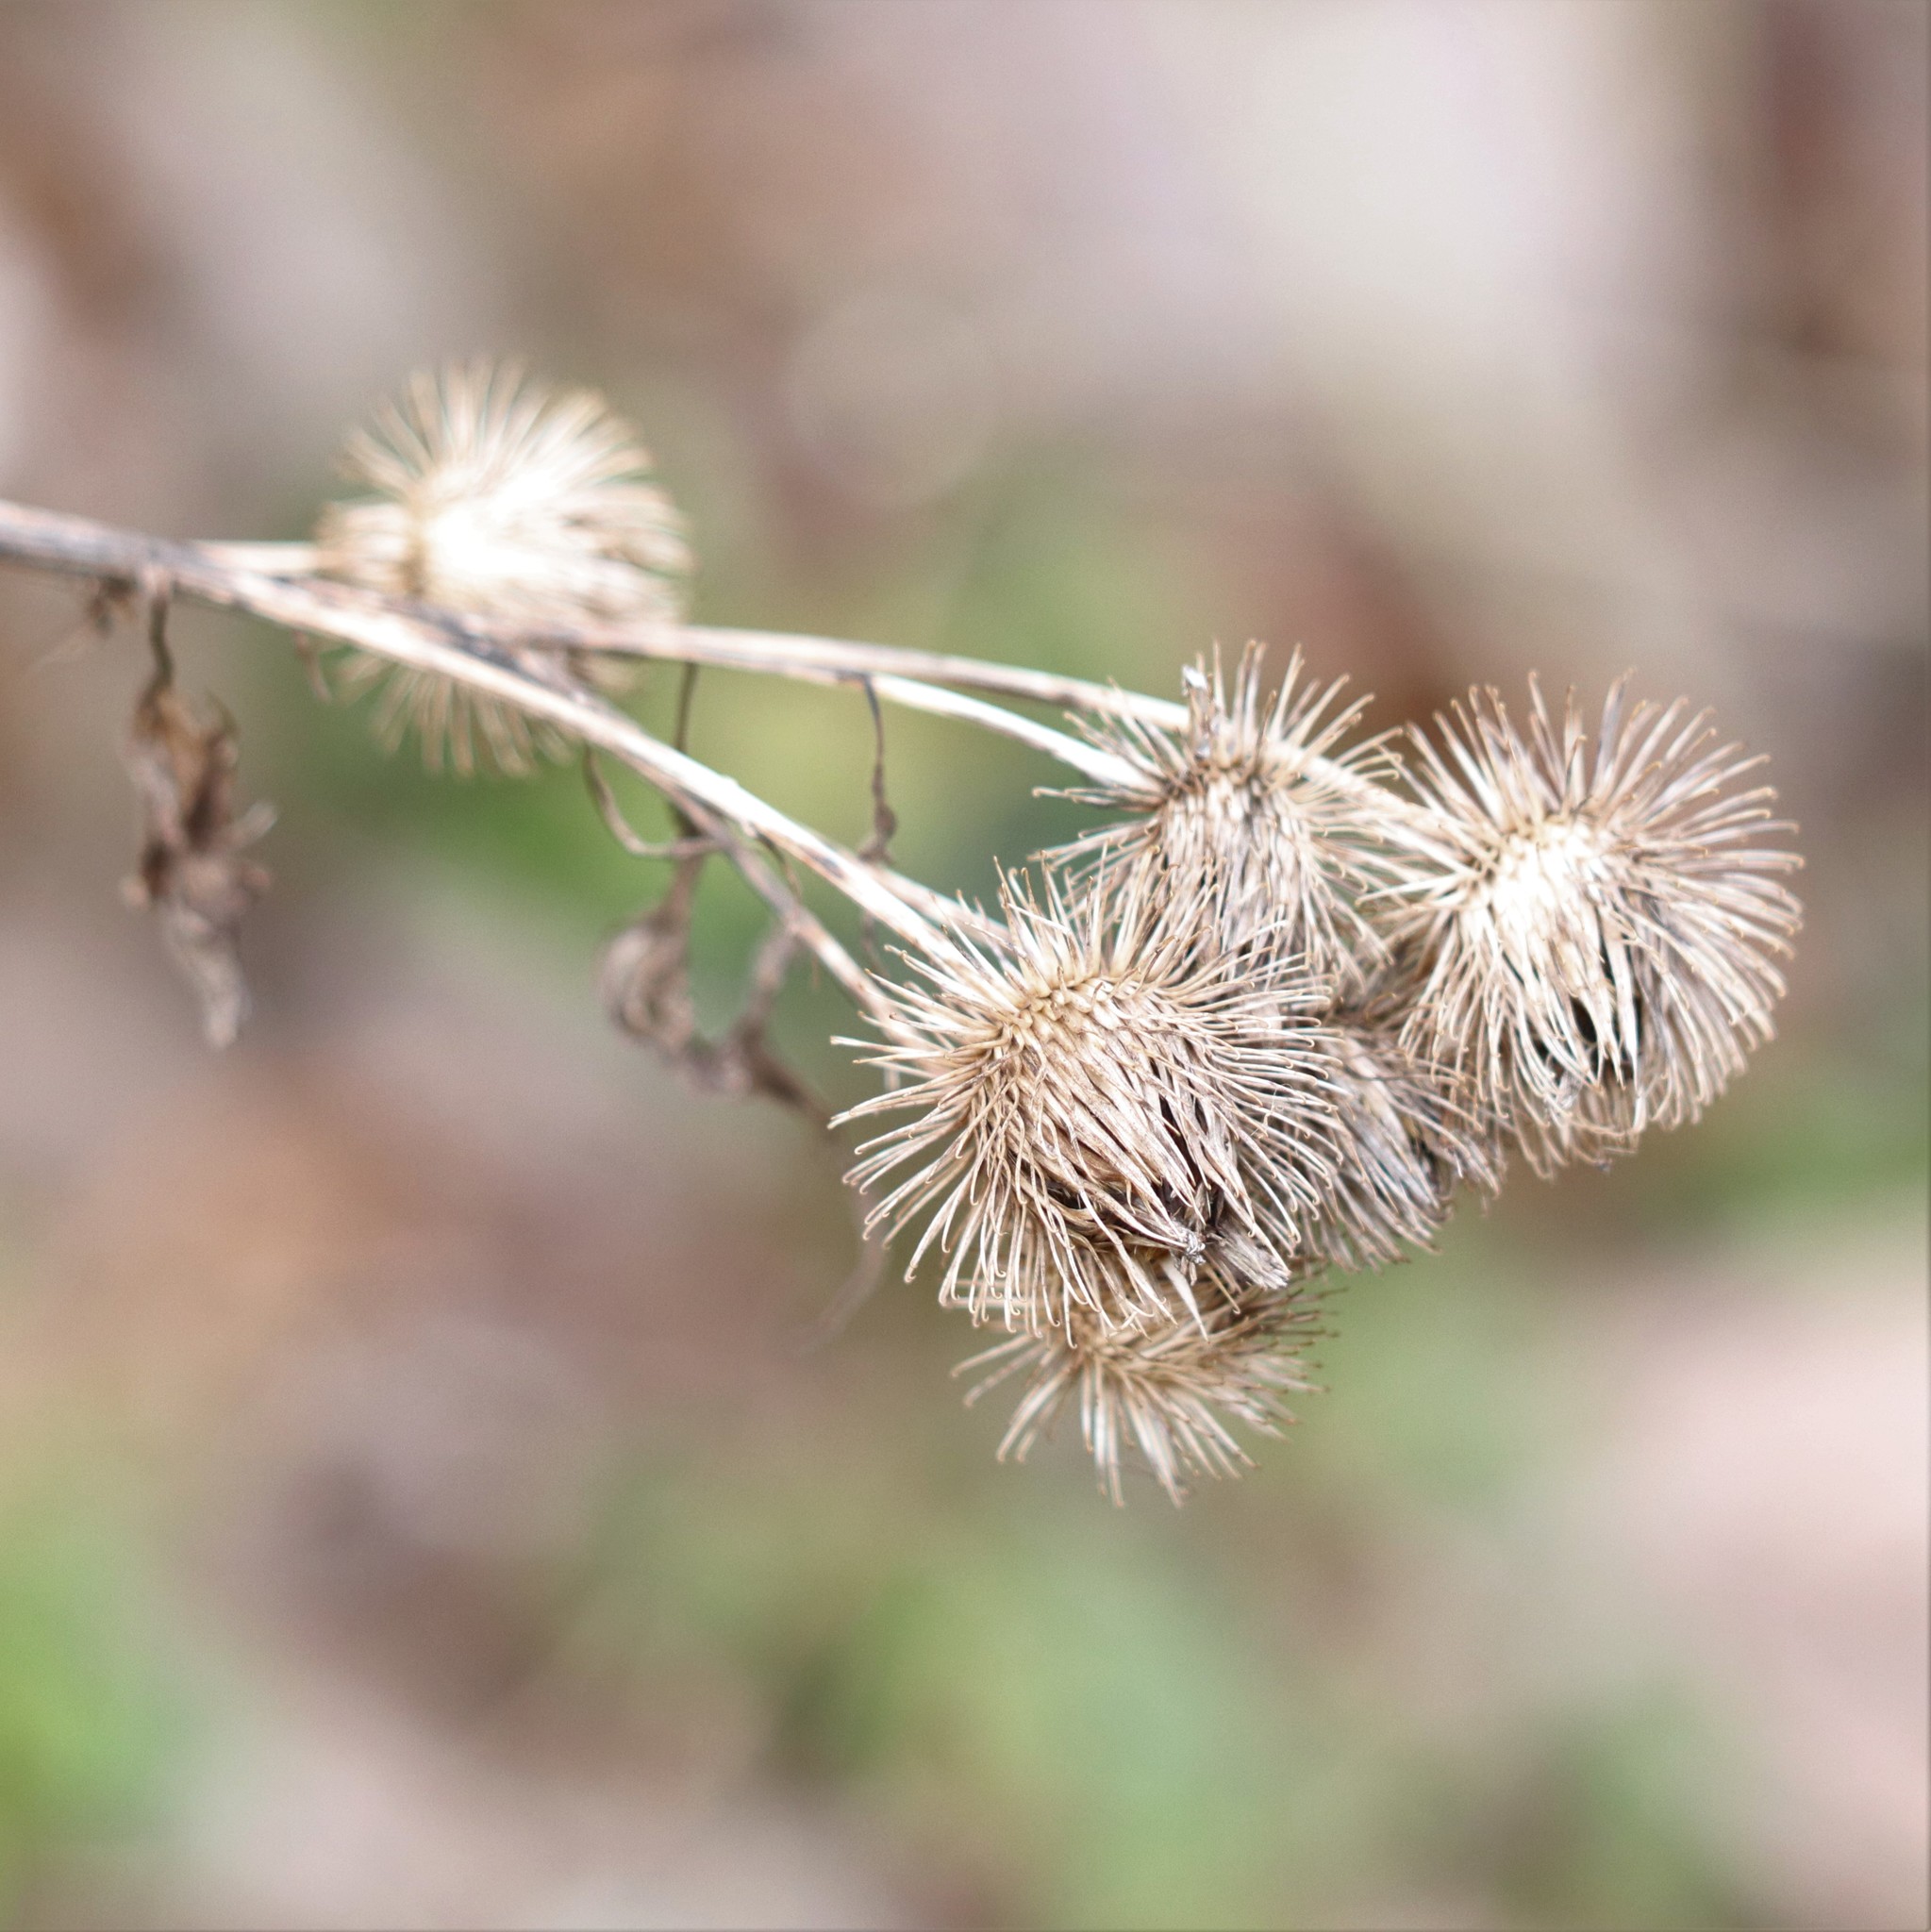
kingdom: Plantae
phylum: Tracheophyta
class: Magnoliopsida
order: Asterales
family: Asteraceae
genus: Arctium
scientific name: Arctium lappa
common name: Greater burdock
